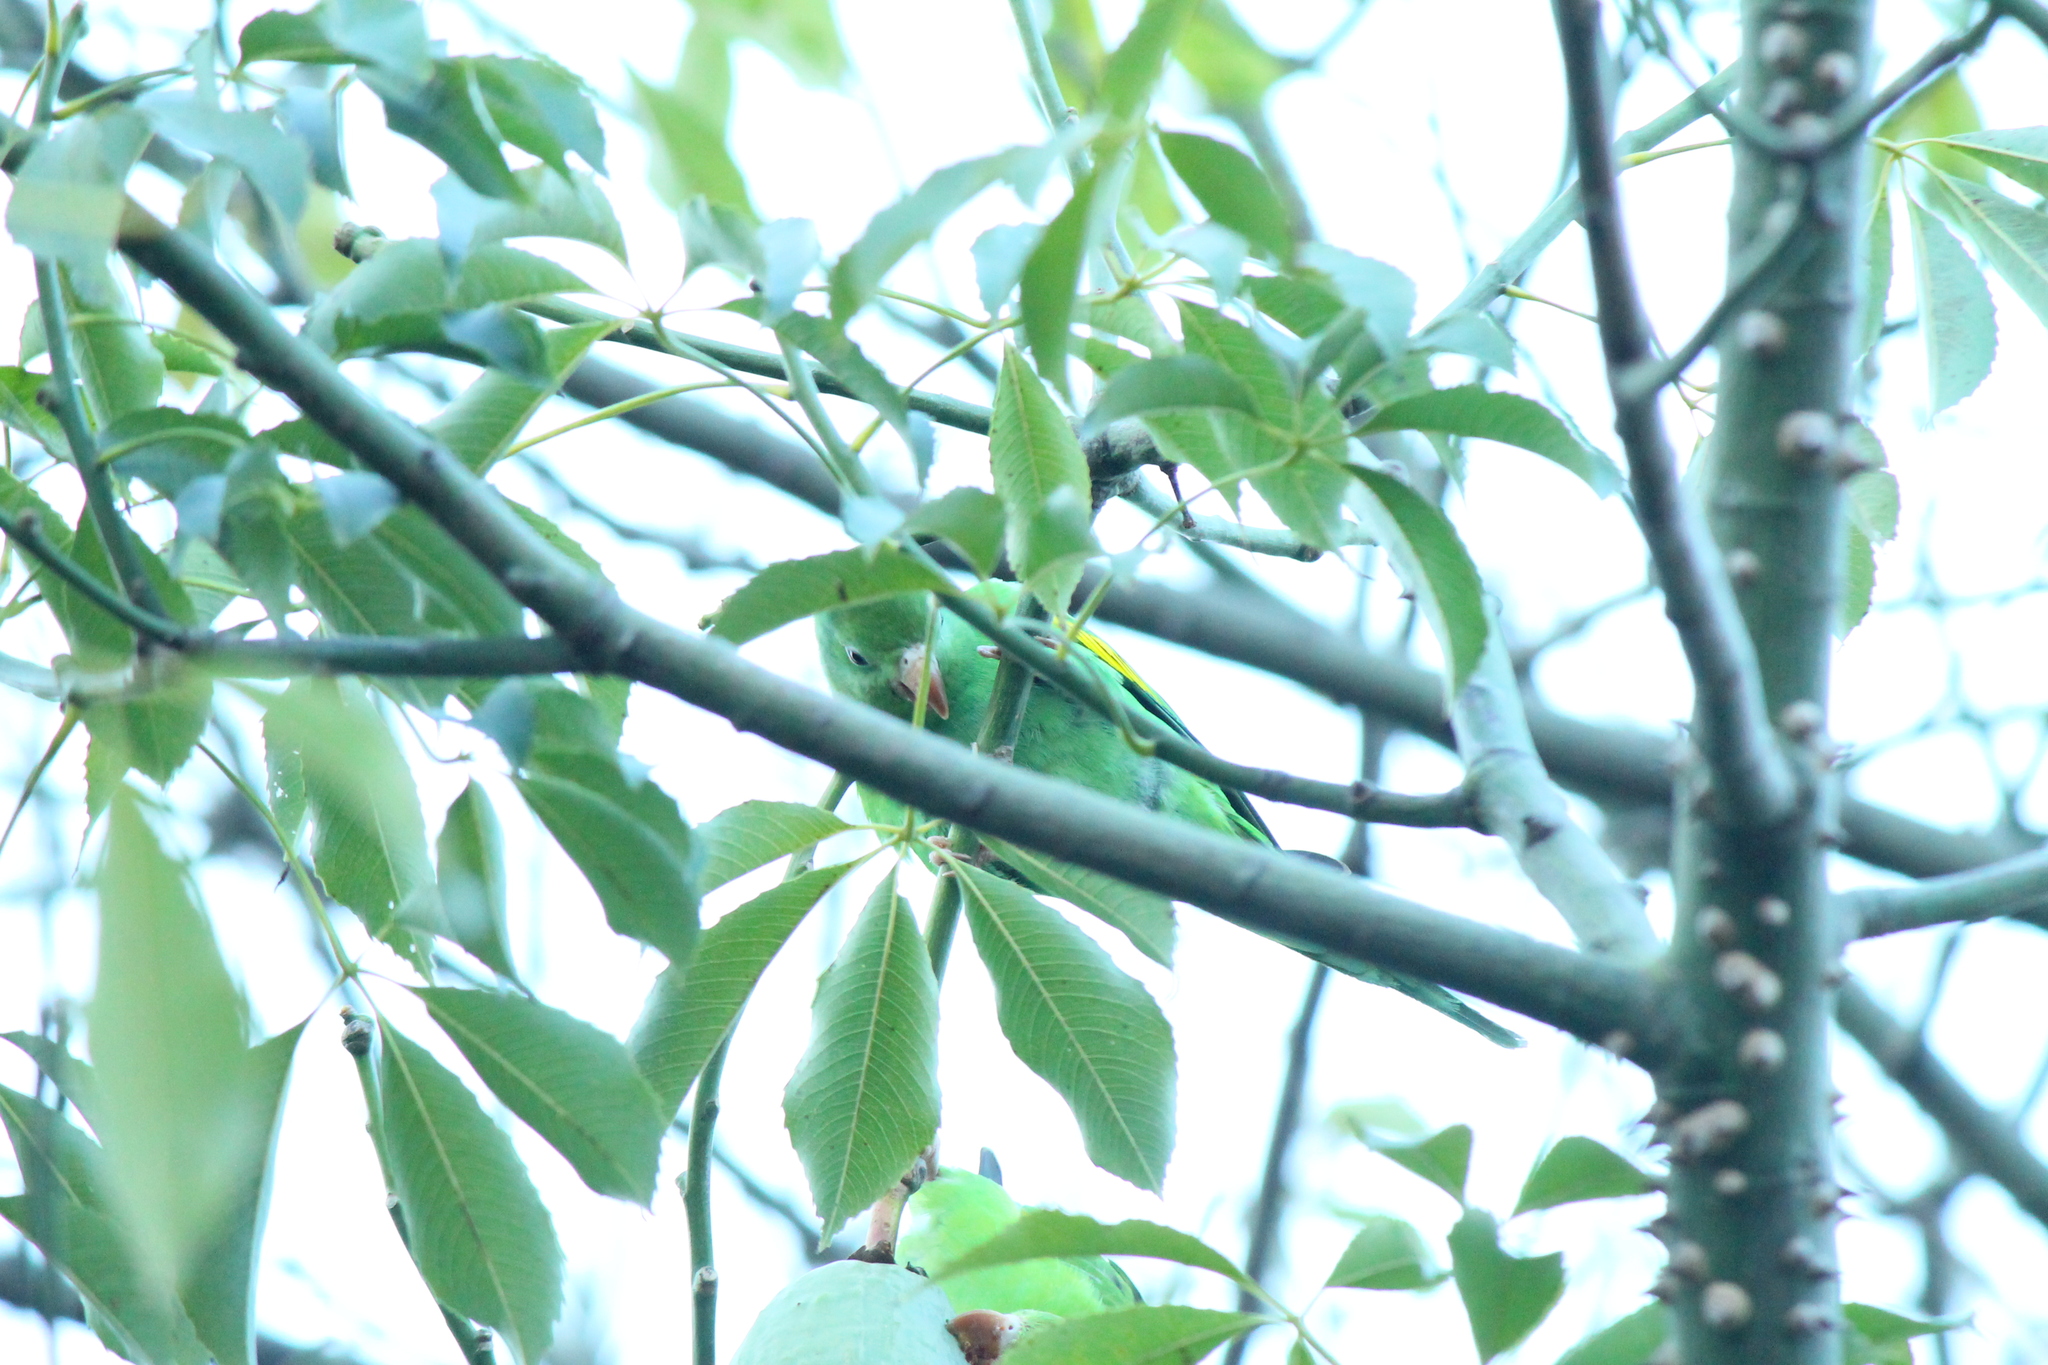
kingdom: Animalia
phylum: Chordata
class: Aves
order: Psittaciformes
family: Psittacidae
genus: Brotogeris
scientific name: Brotogeris chiriri
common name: Yellow-chevroned parakeet
